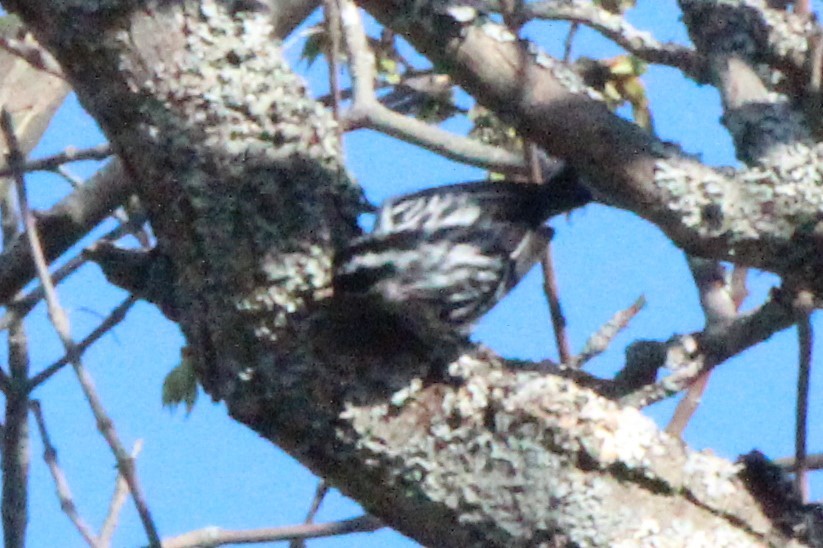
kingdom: Animalia
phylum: Chordata
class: Aves
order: Passeriformes
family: Parulidae
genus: Mniotilta
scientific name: Mniotilta varia
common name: Black-and-white warbler
